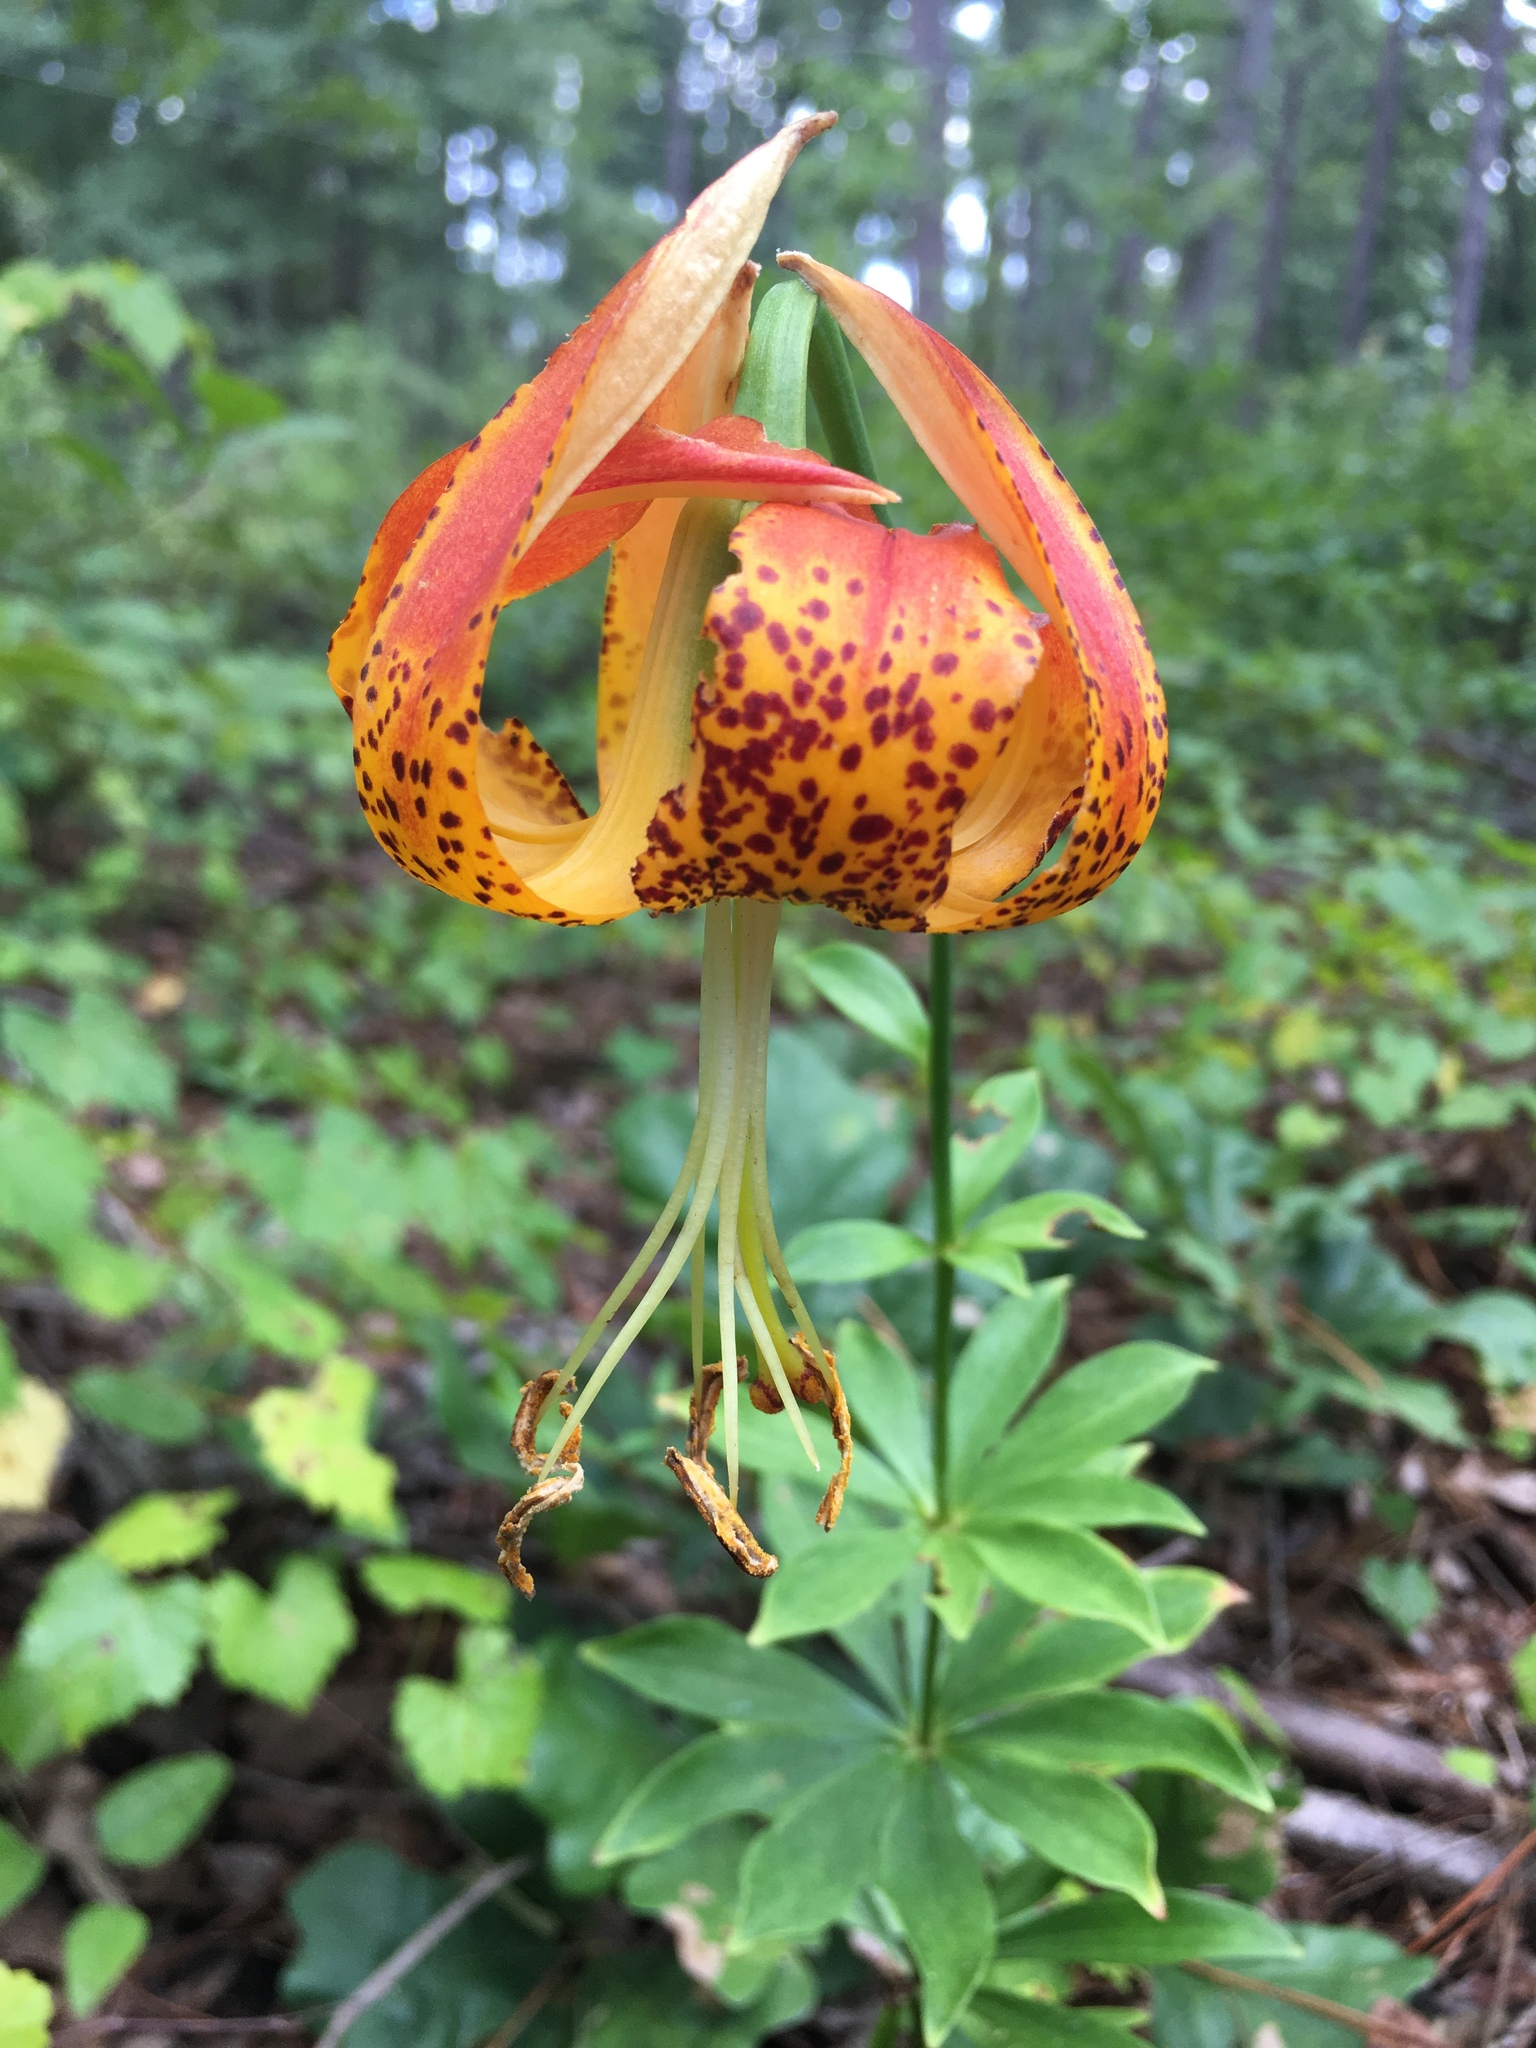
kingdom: Plantae
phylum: Tracheophyta
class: Liliopsida
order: Liliales
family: Liliaceae
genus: Lilium
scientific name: Lilium michauxii
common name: Carolina lily
